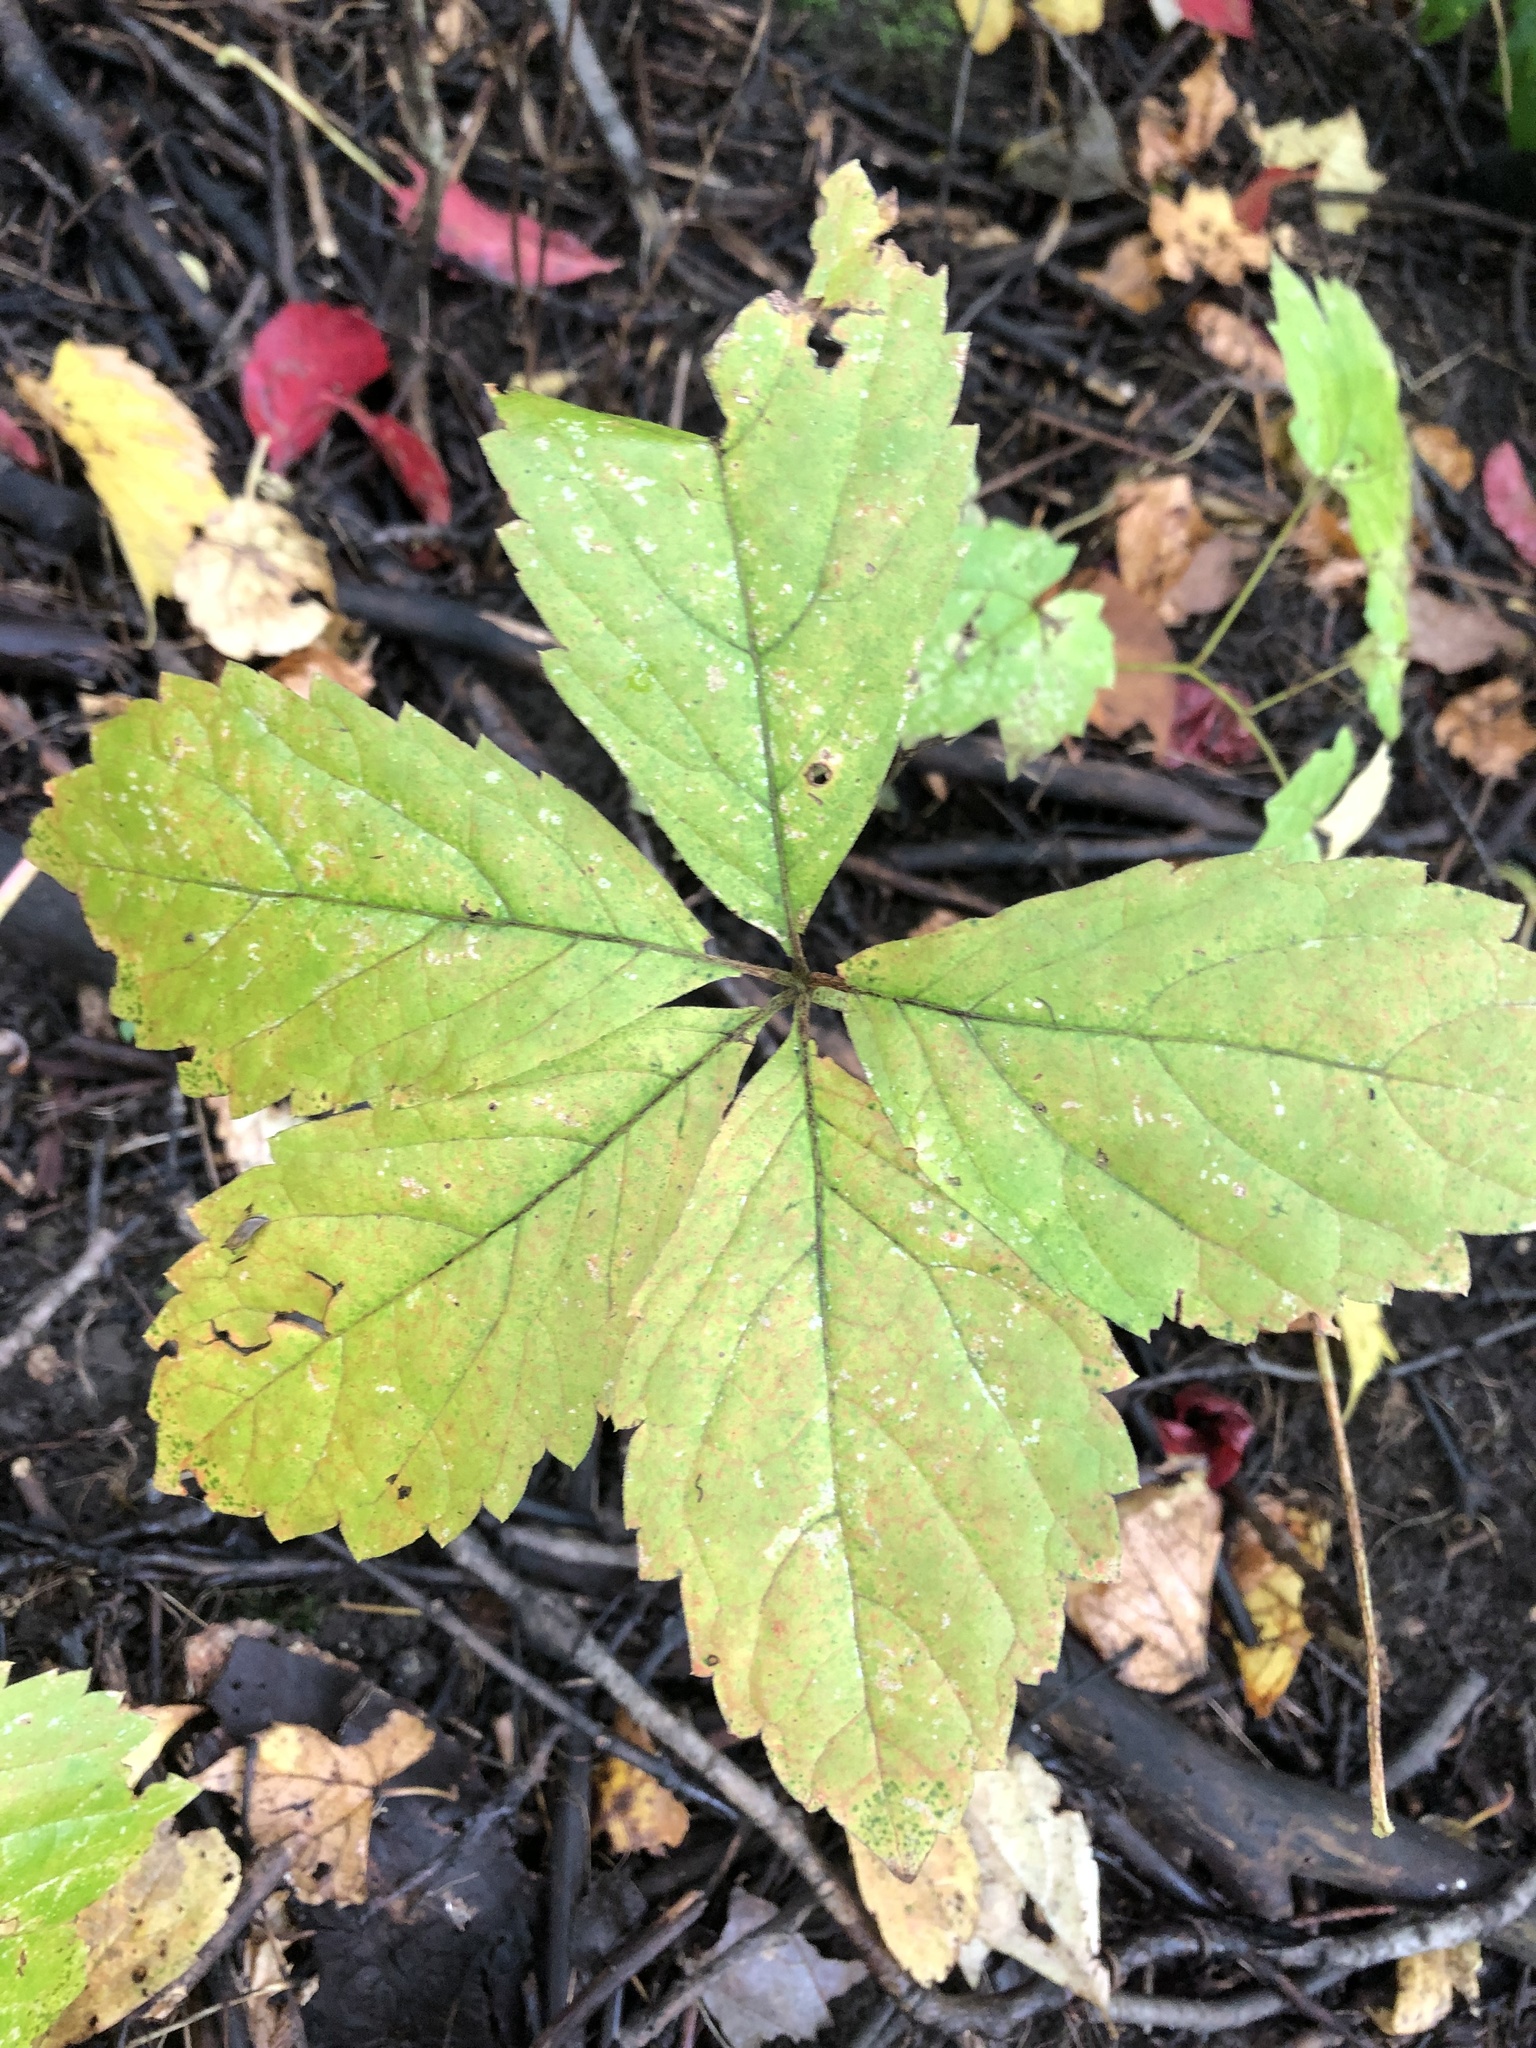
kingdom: Plantae
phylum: Tracheophyta
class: Magnoliopsida
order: Vitales
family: Vitaceae
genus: Parthenocissus
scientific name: Parthenocissus quinquefolia
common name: Virginia-creeper
